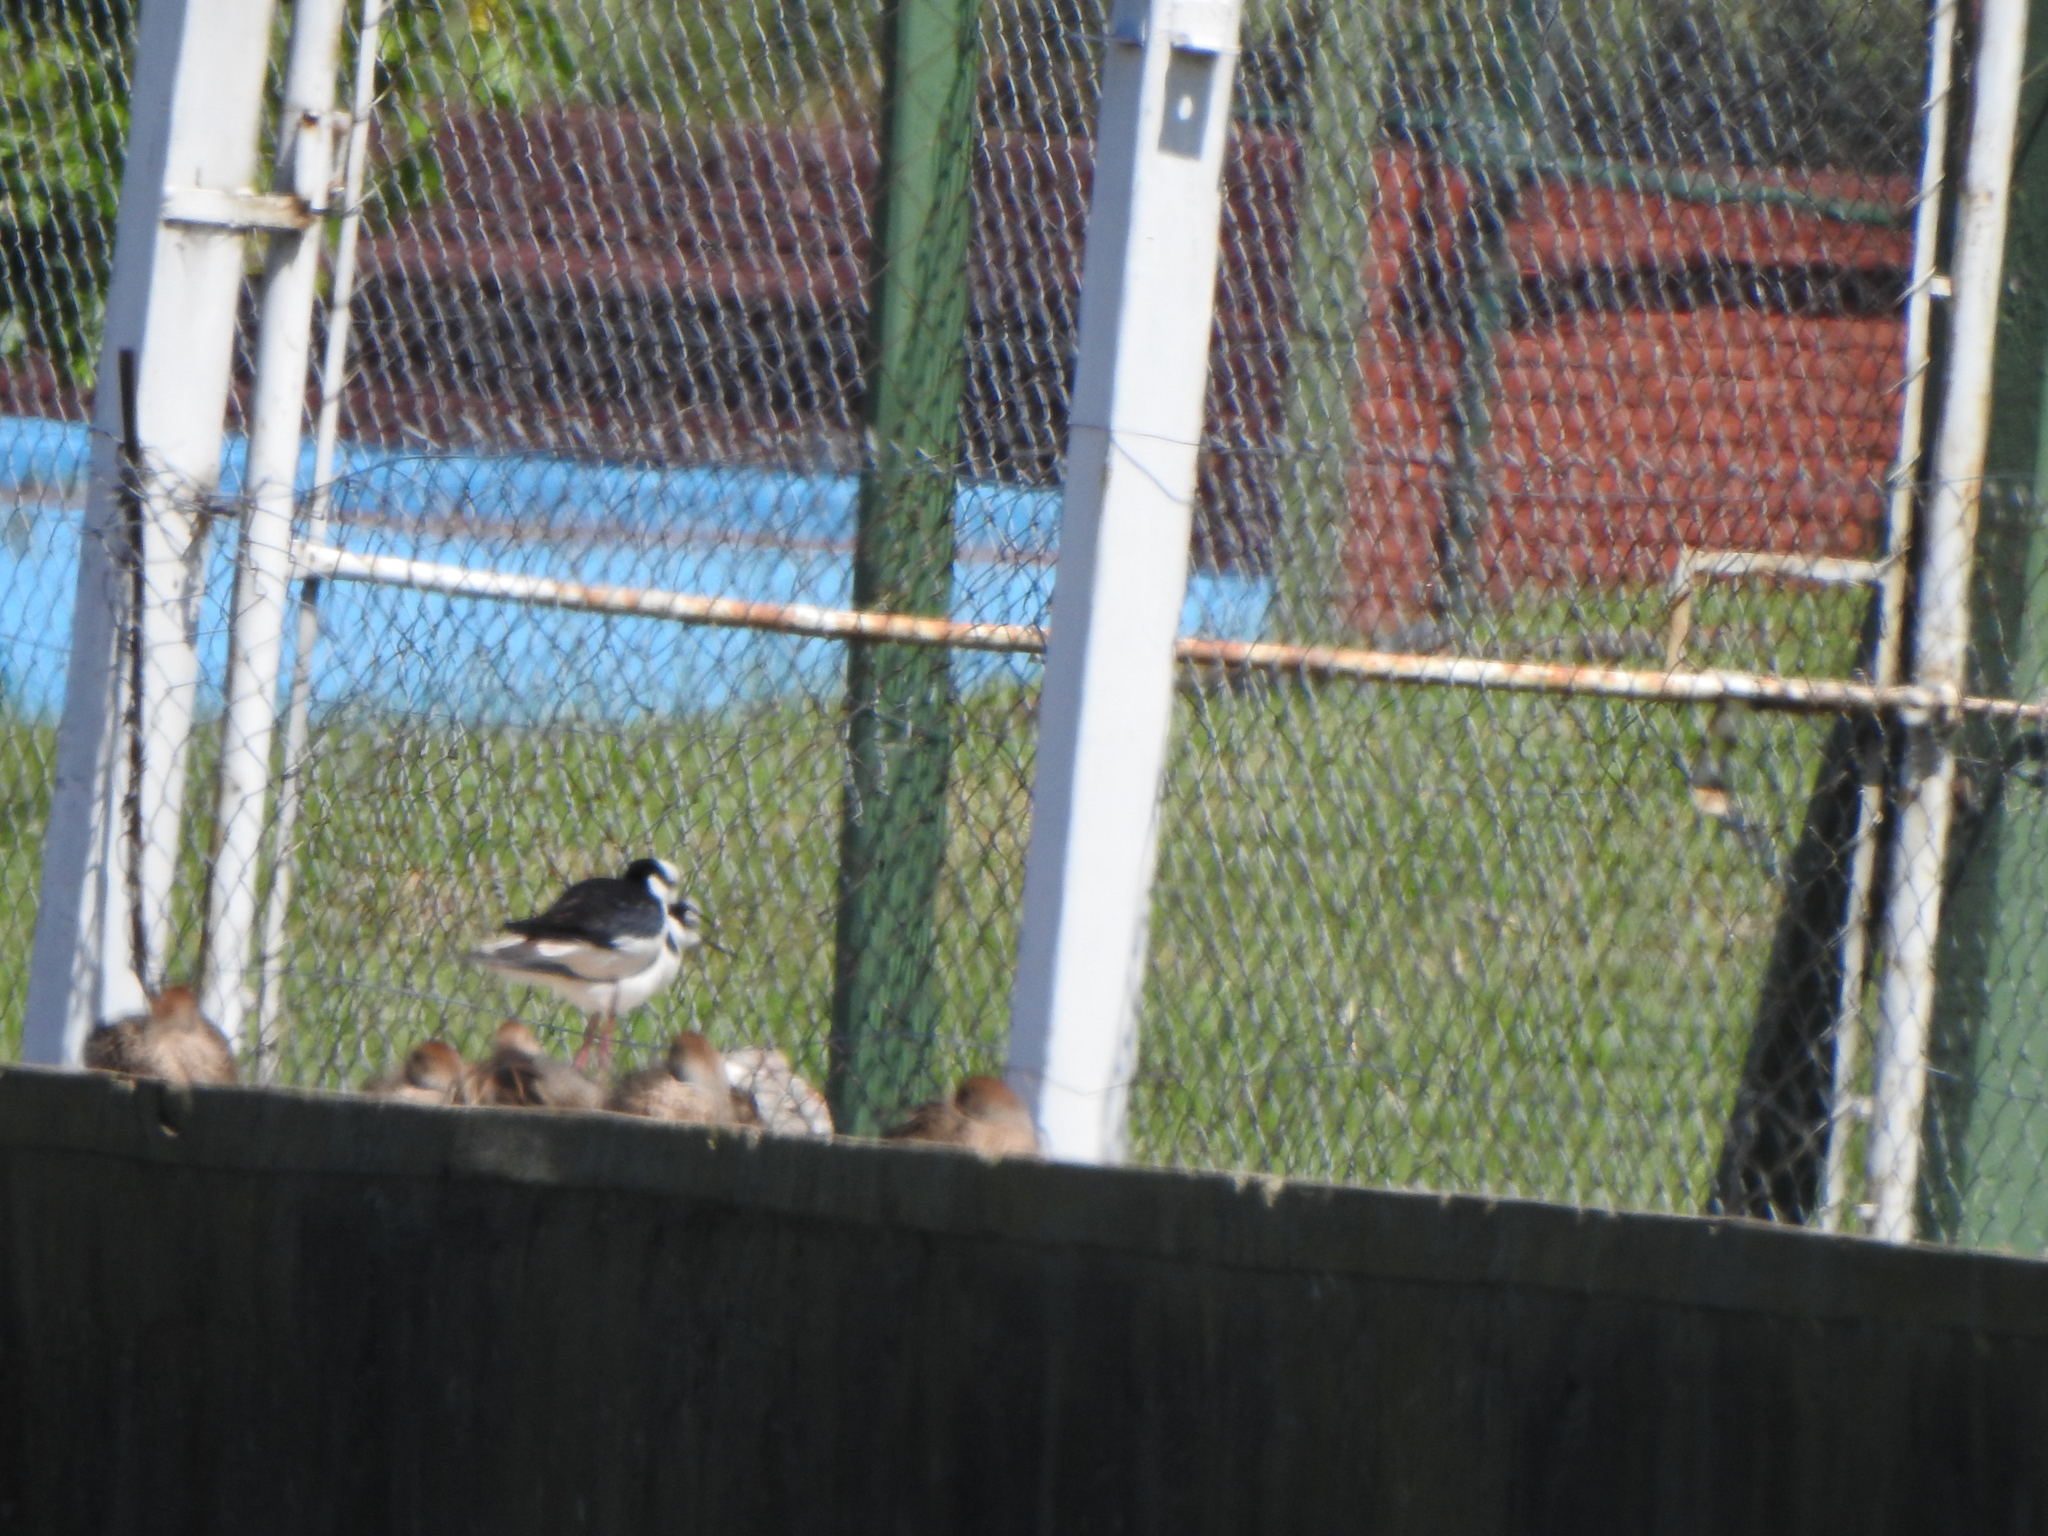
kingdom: Animalia
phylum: Chordata
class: Aves
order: Charadriiformes
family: Recurvirostridae
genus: Himantopus
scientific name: Himantopus mexicanus
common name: Black-necked stilt
